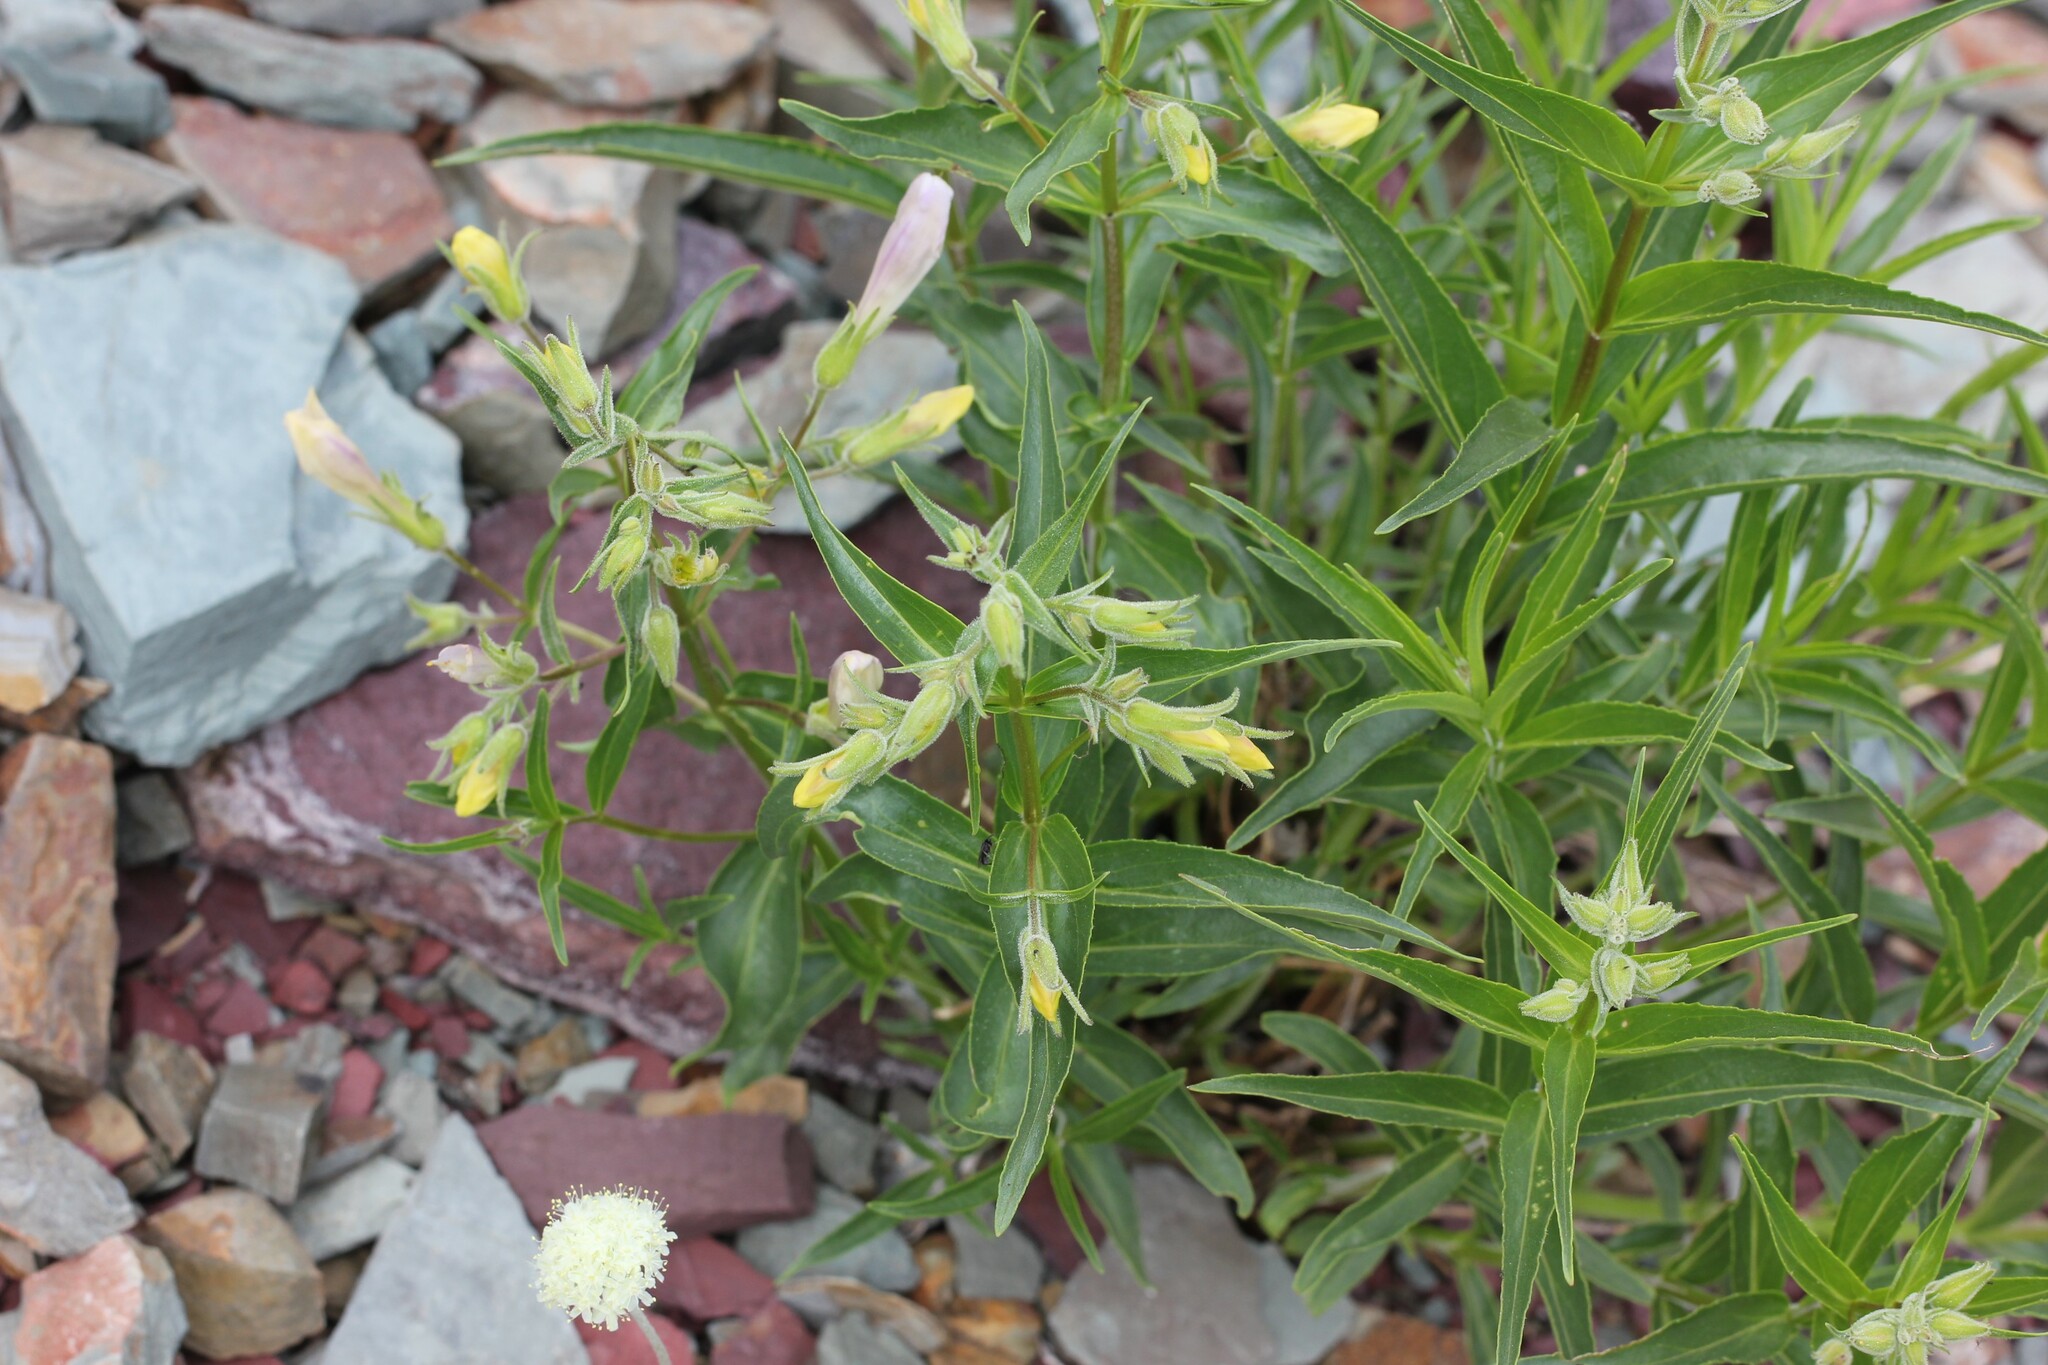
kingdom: Plantae
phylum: Tracheophyta
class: Magnoliopsida
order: Lamiales
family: Plantaginaceae
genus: Penstemon
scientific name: Penstemon lyalli
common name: Lyall's beardtongue
